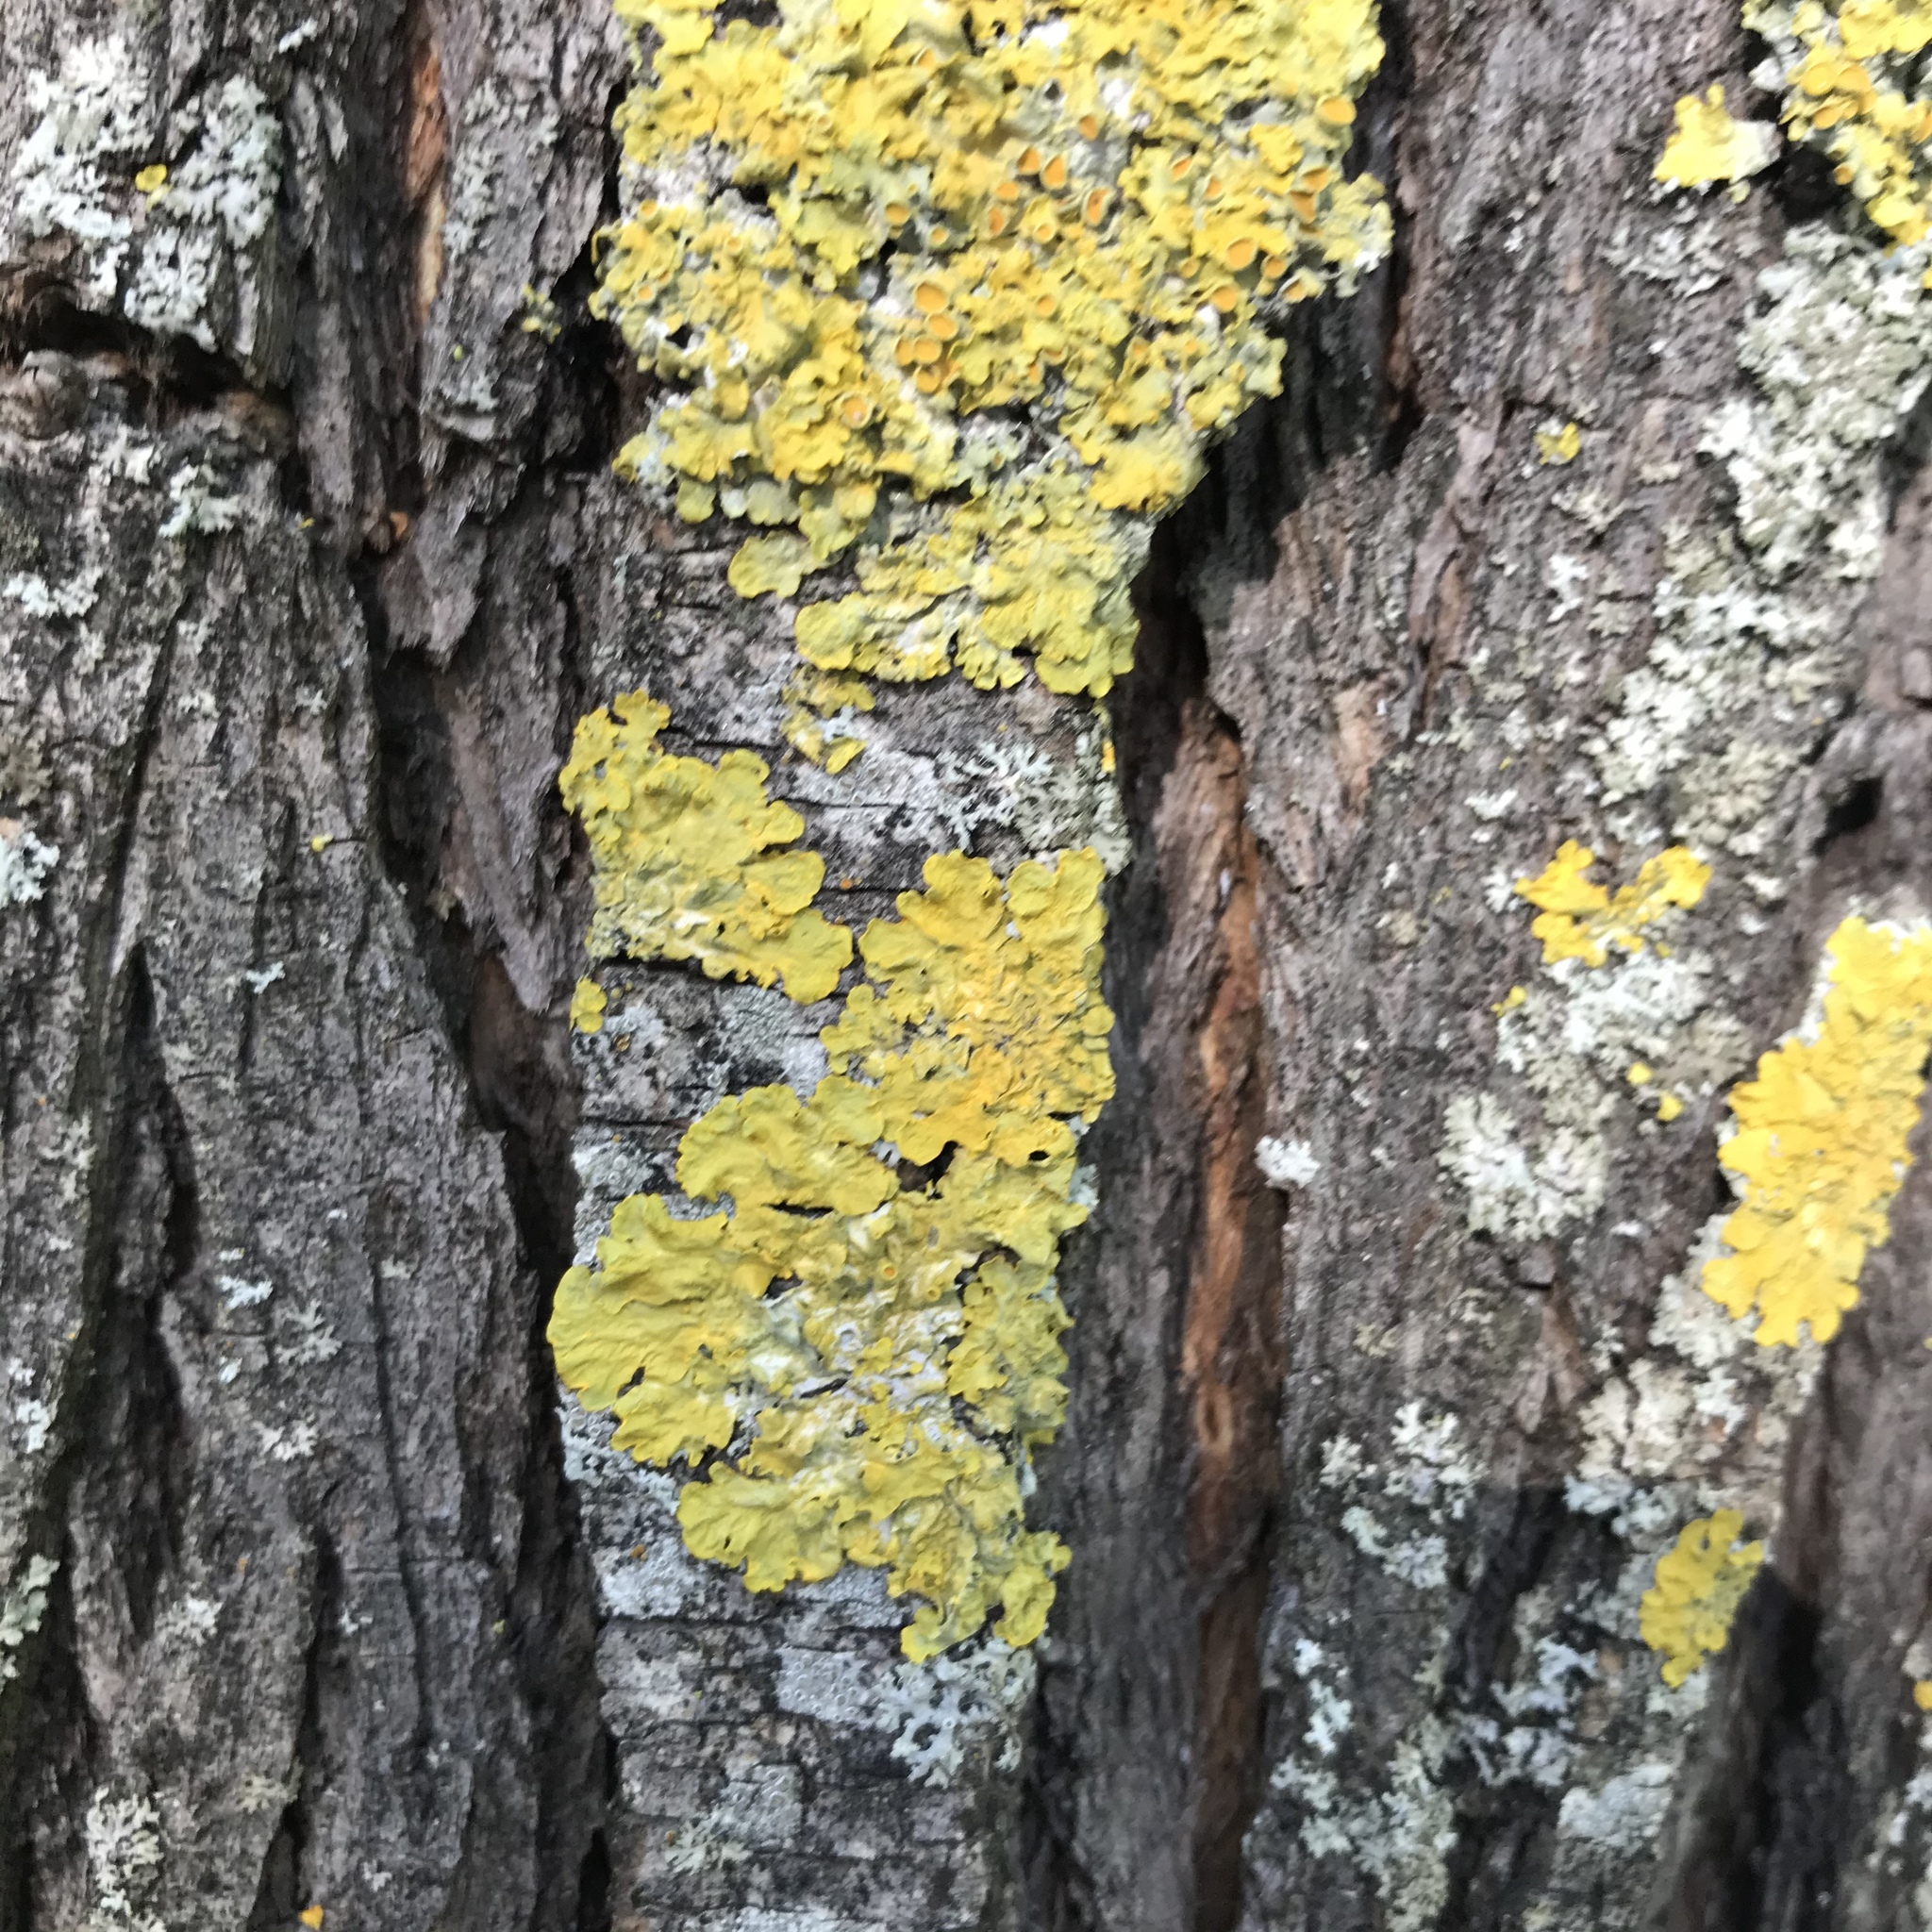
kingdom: Fungi
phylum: Ascomycota
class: Lecanoromycetes
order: Teloschistales
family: Teloschistaceae
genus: Xanthoria
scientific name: Xanthoria parietina
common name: Common orange lichen
